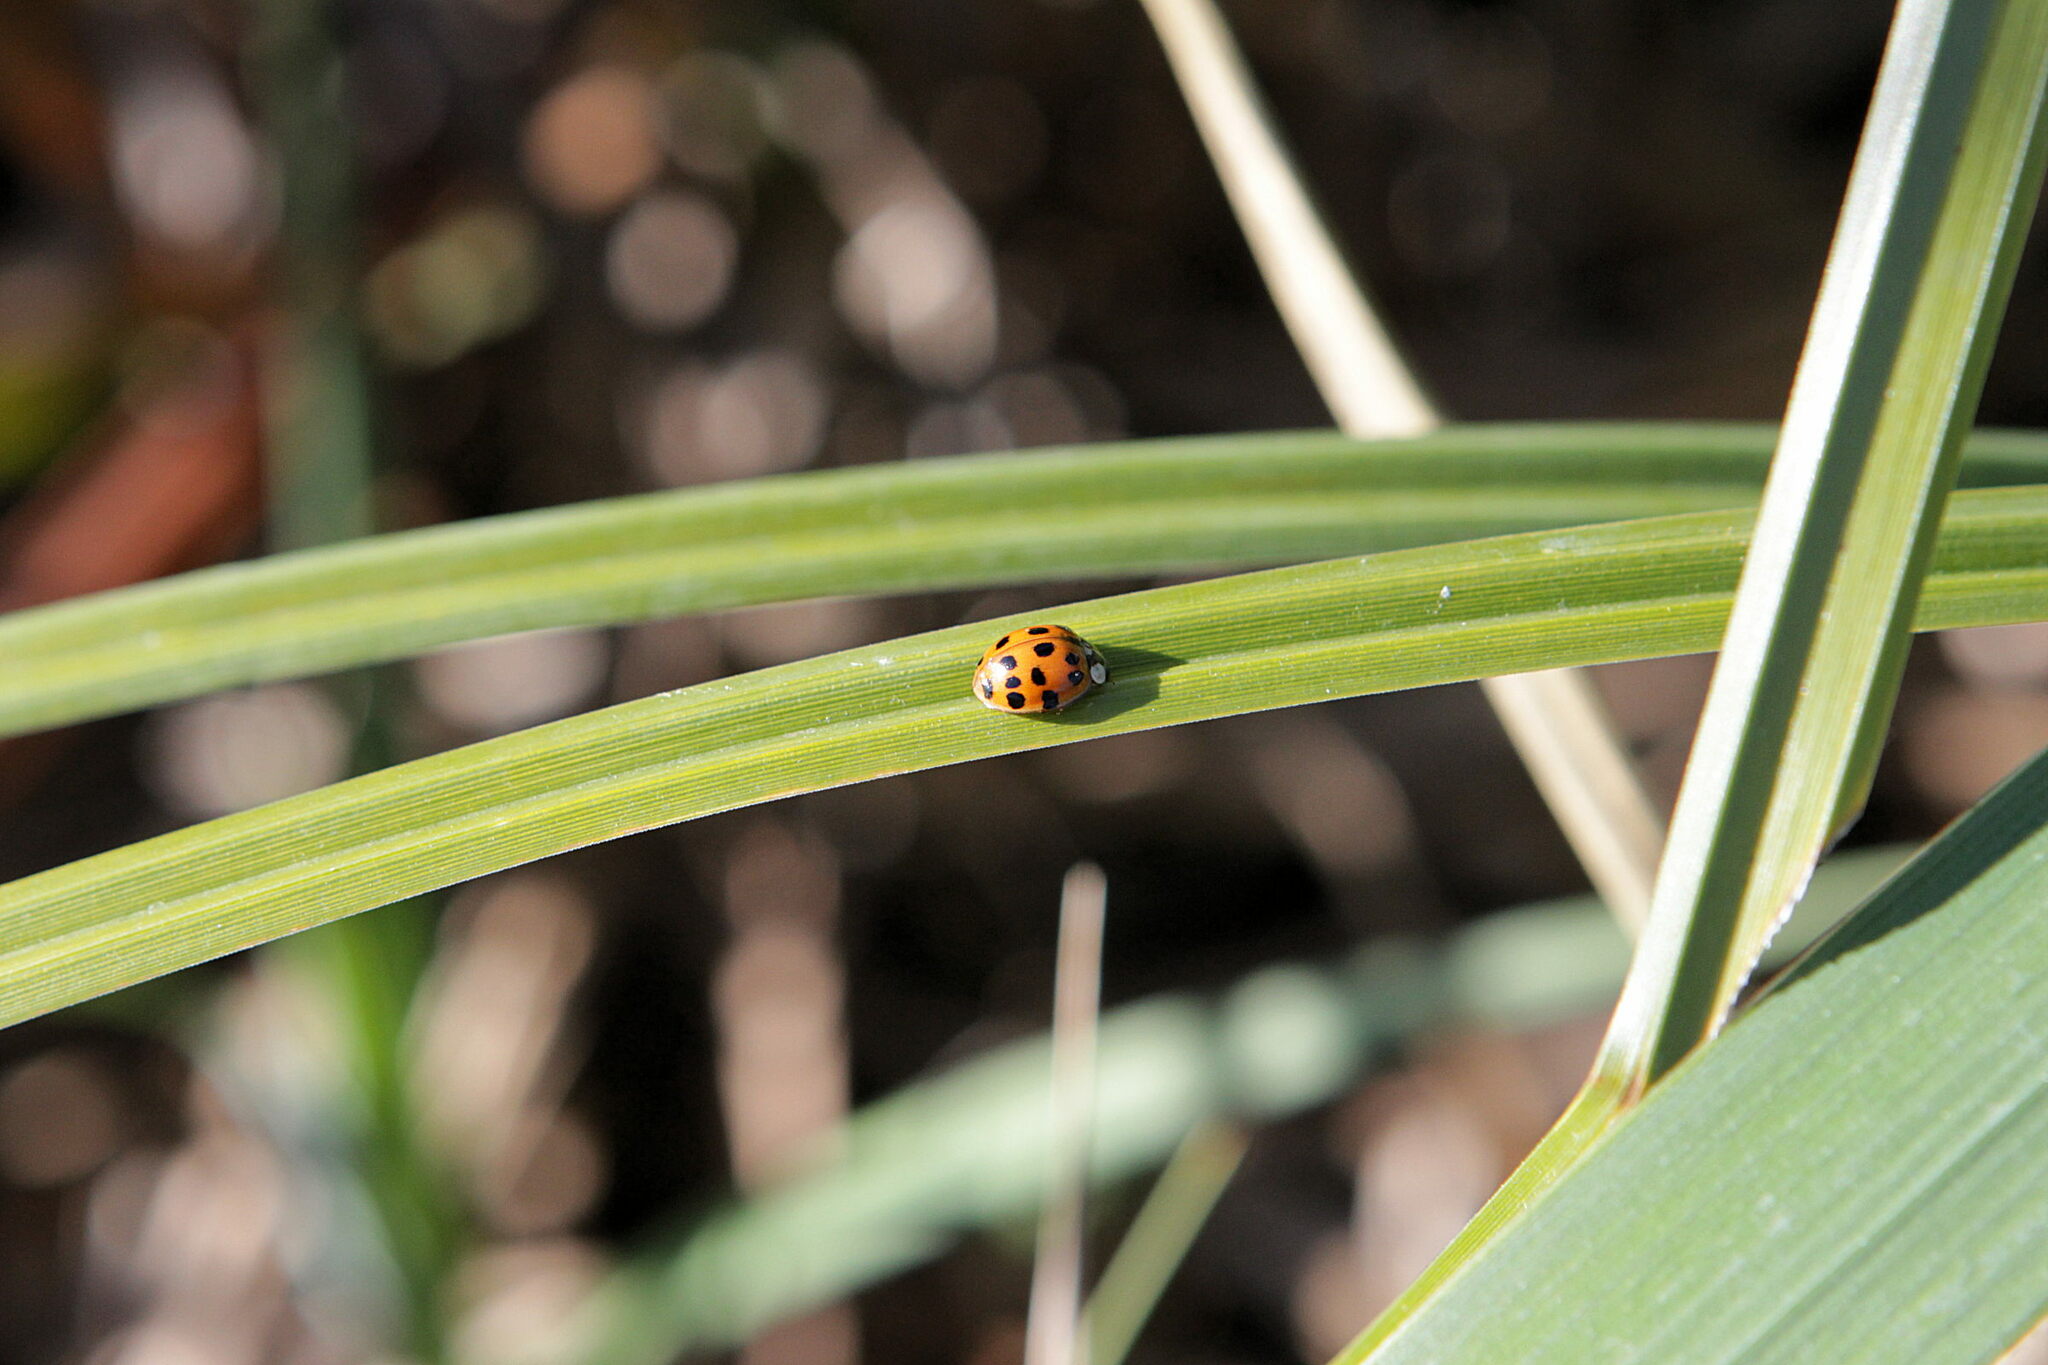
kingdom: Animalia
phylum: Arthropoda
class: Insecta
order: Coleoptera
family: Coccinellidae
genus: Harmonia
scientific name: Harmonia axyridis
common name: Harlequin ladybird
